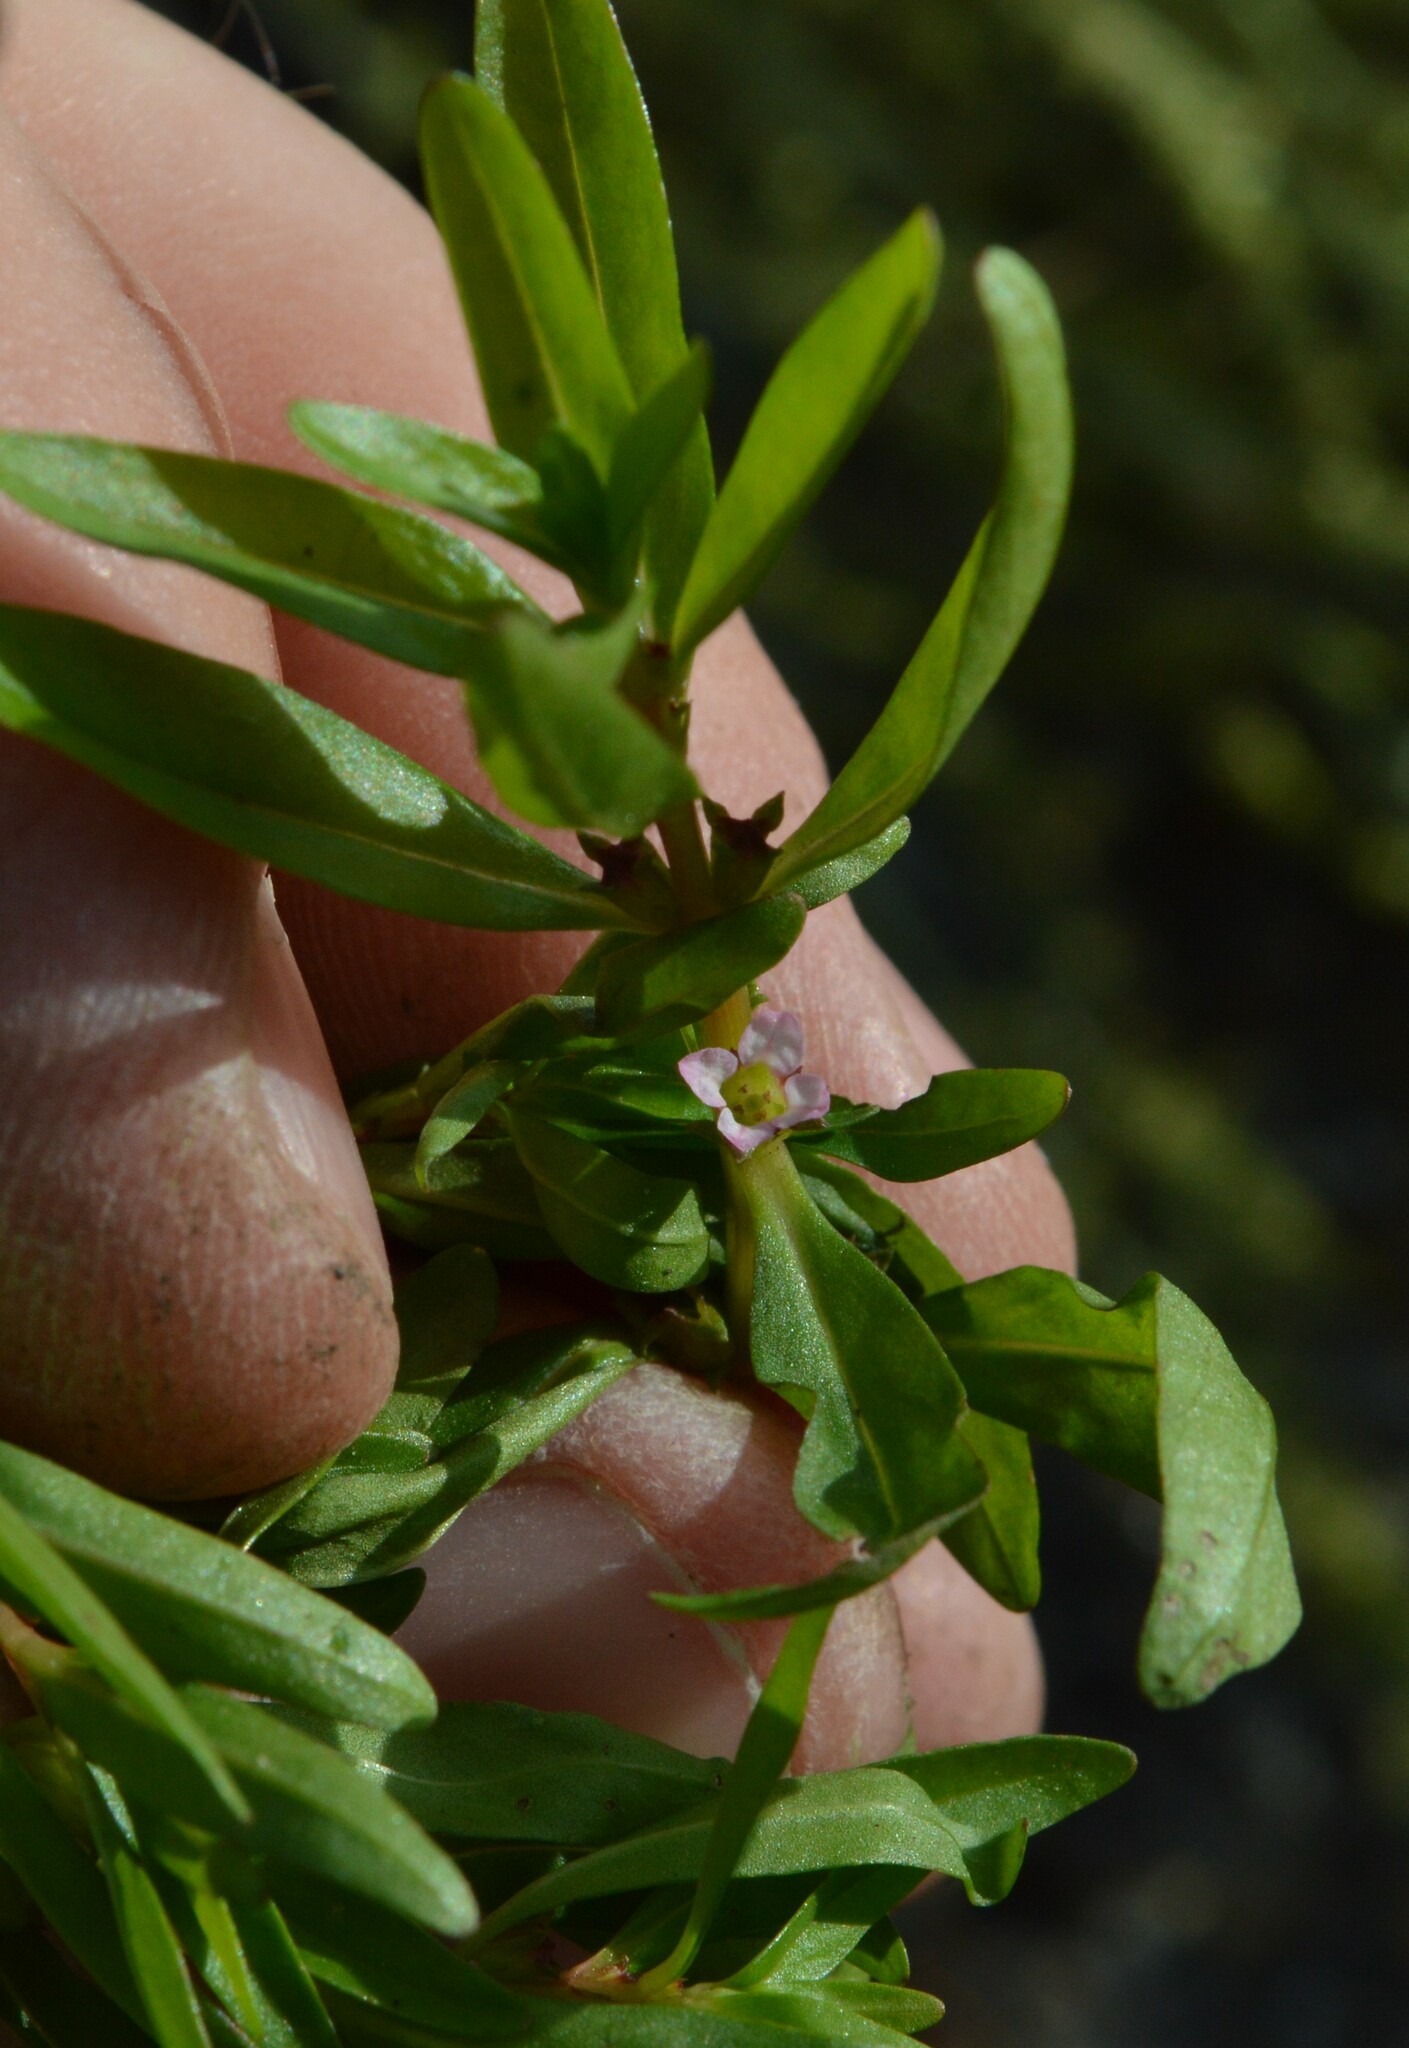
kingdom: Plantae
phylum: Tracheophyta
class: Magnoliopsida
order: Myrtales
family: Lythraceae
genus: Rotala
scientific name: Rotala ramosior
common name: Lowland rotala
